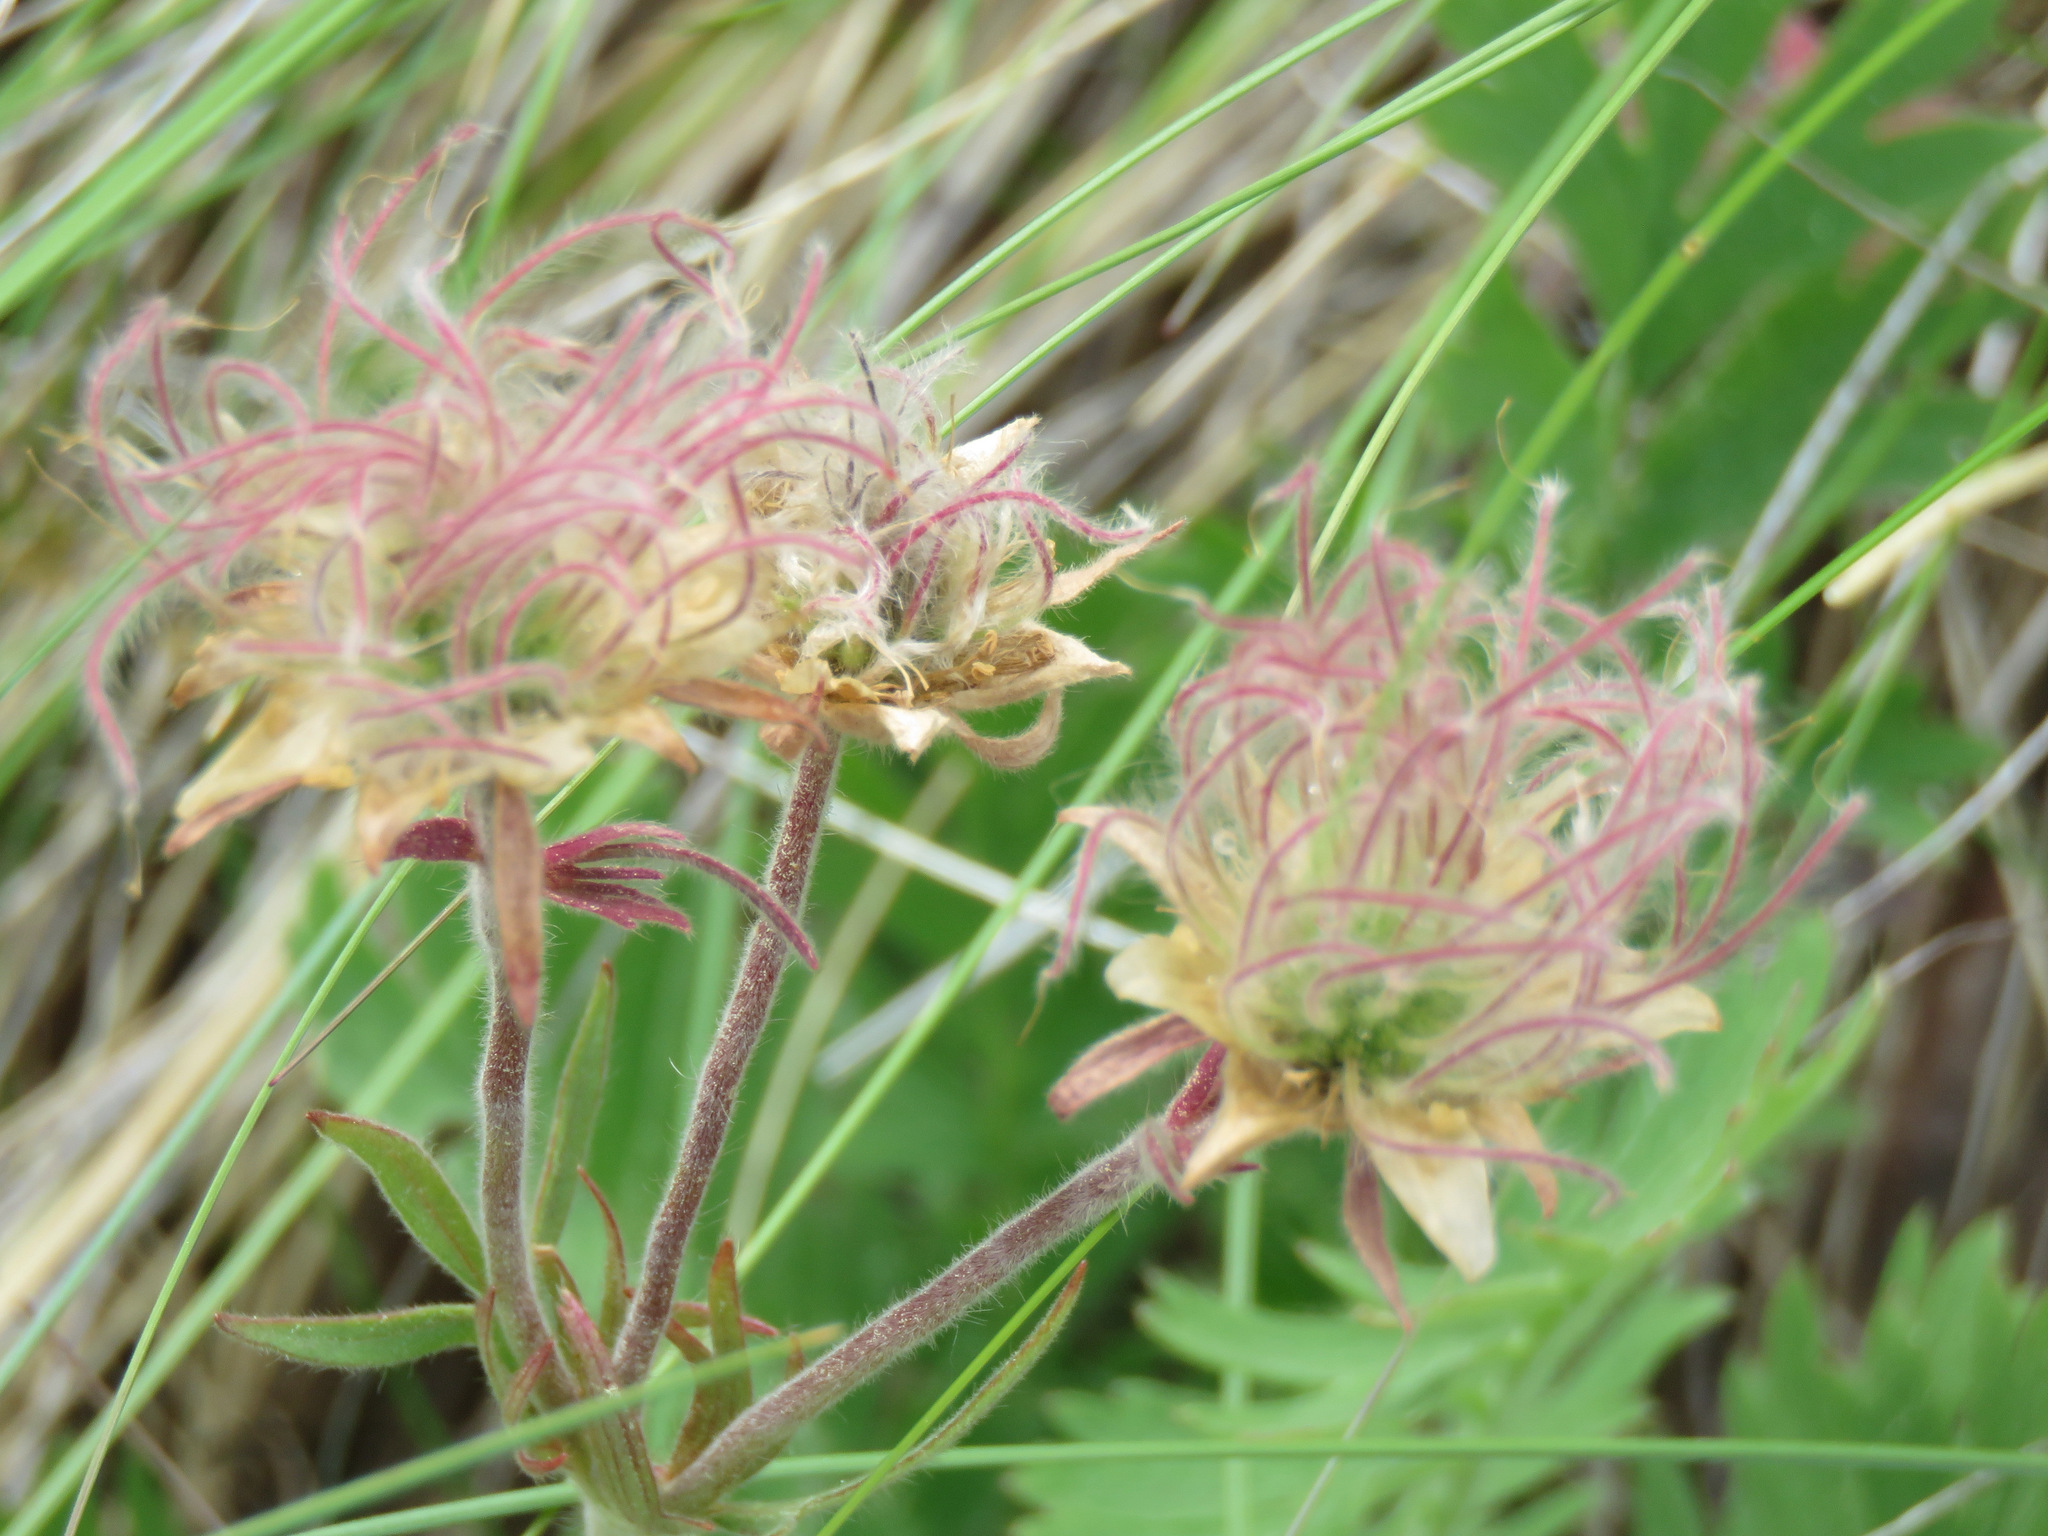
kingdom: Plantae
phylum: Tracheophyta
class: Magnoliopsida
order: Rosales
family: Rosaceae
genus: Geum
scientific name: Geum triflorum
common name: Old man's whiskers
